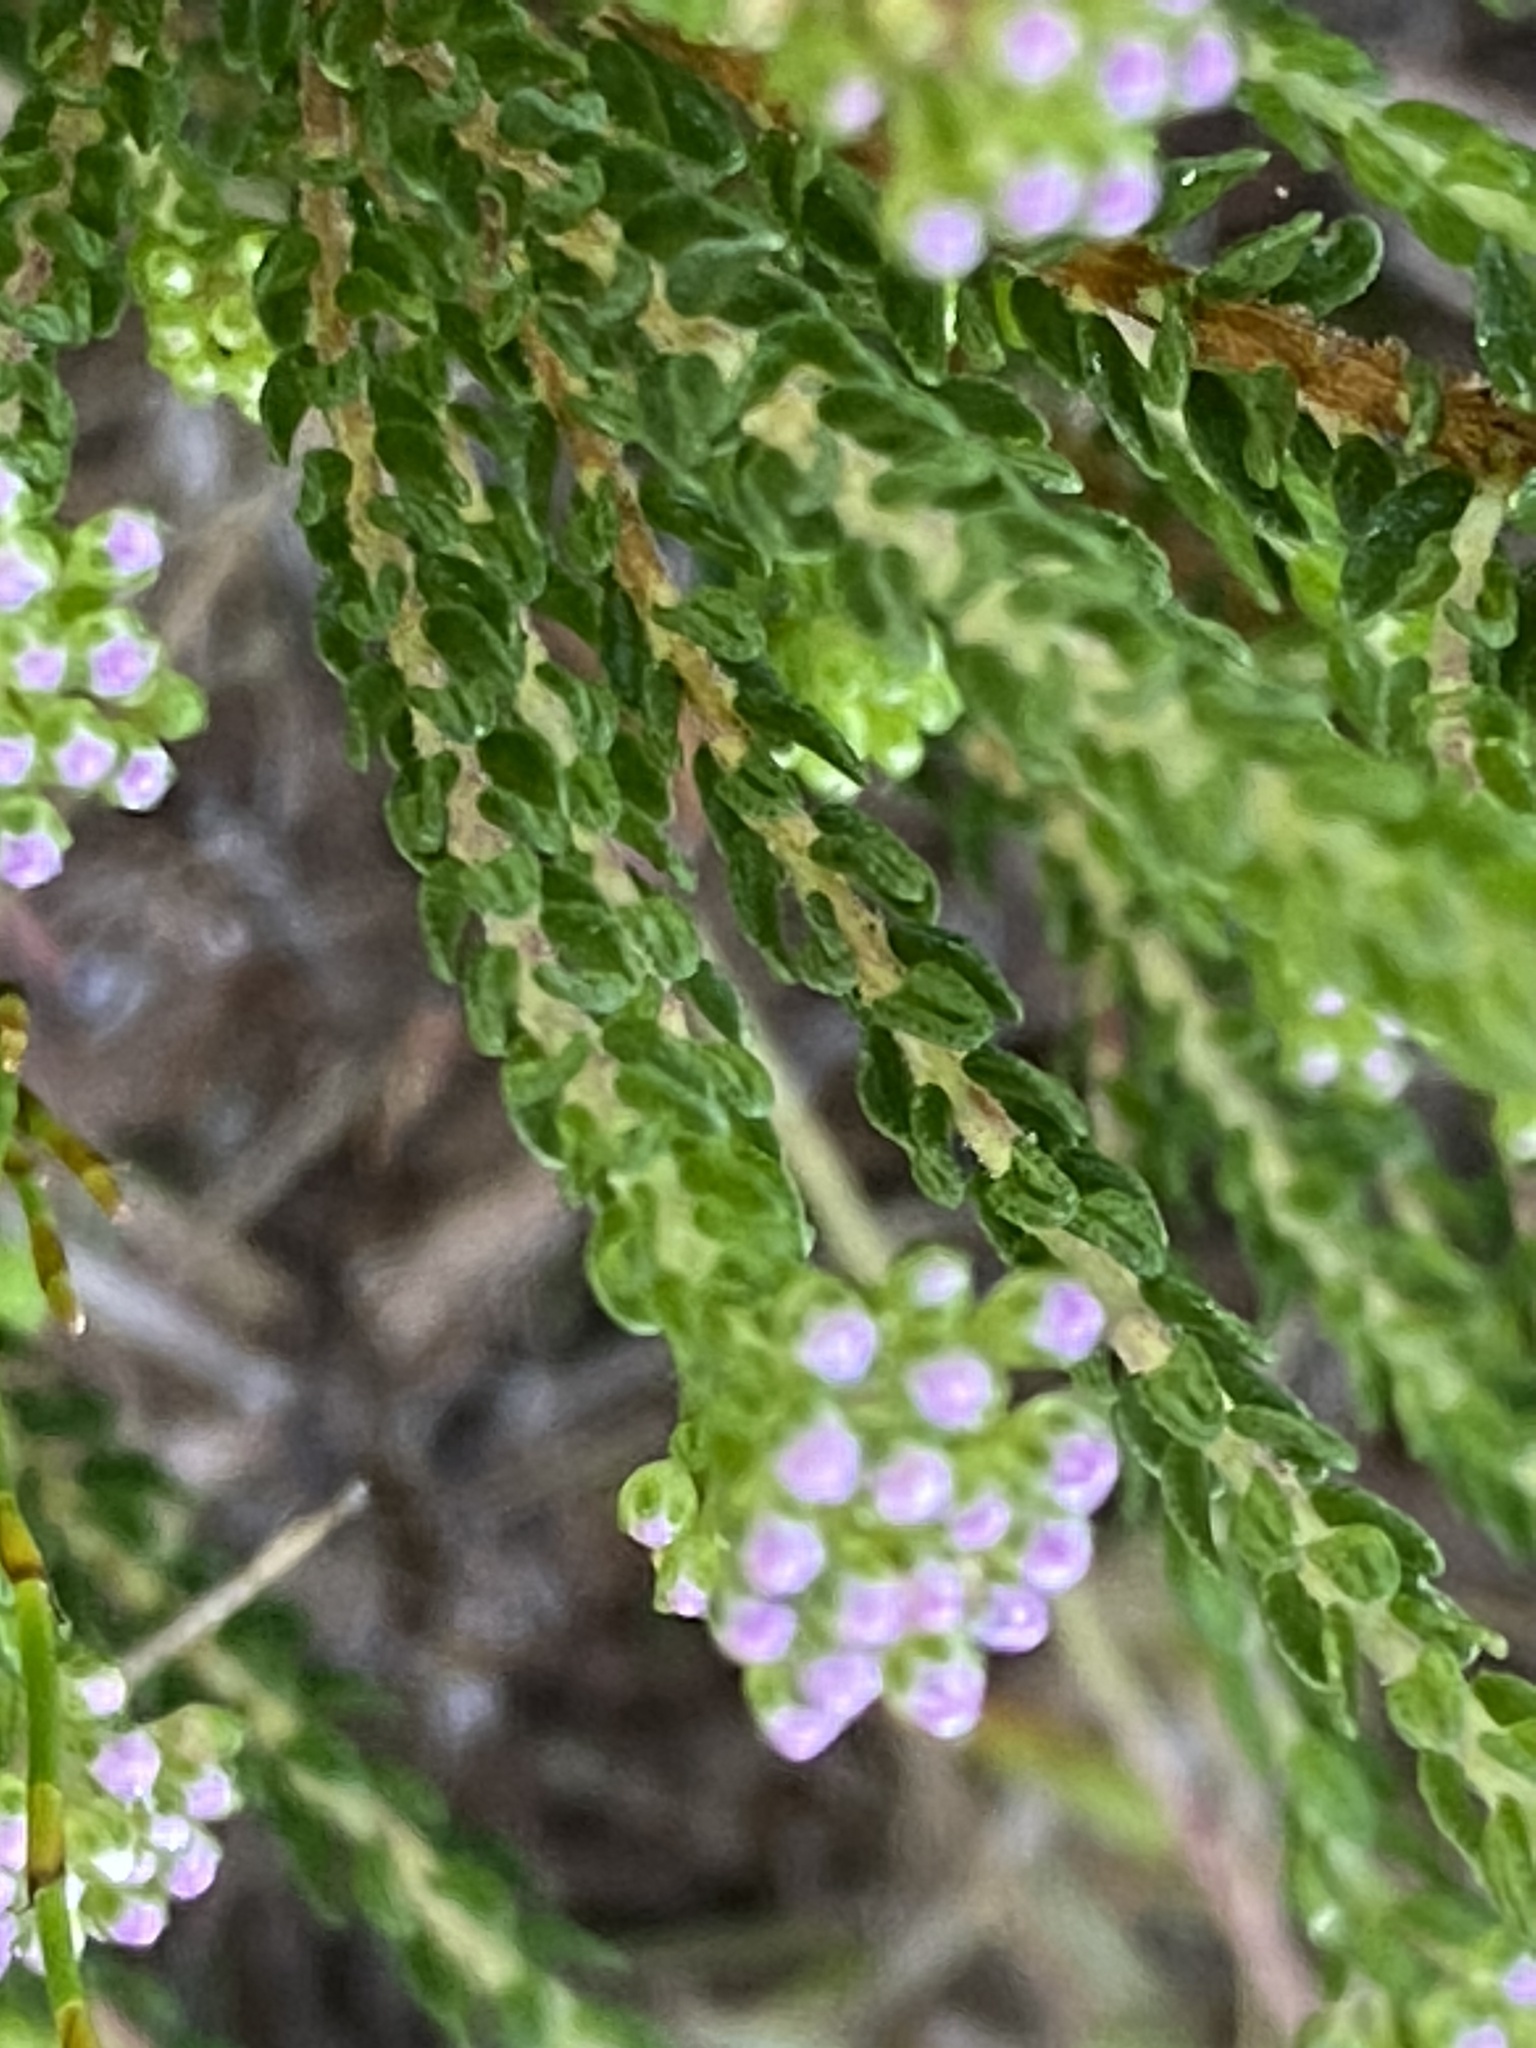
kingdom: Plantae
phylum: Tracheophyta
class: Magnoliopsida
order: Sapindales
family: Rutaceae
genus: Agathosma
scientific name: Agathosma capensis
